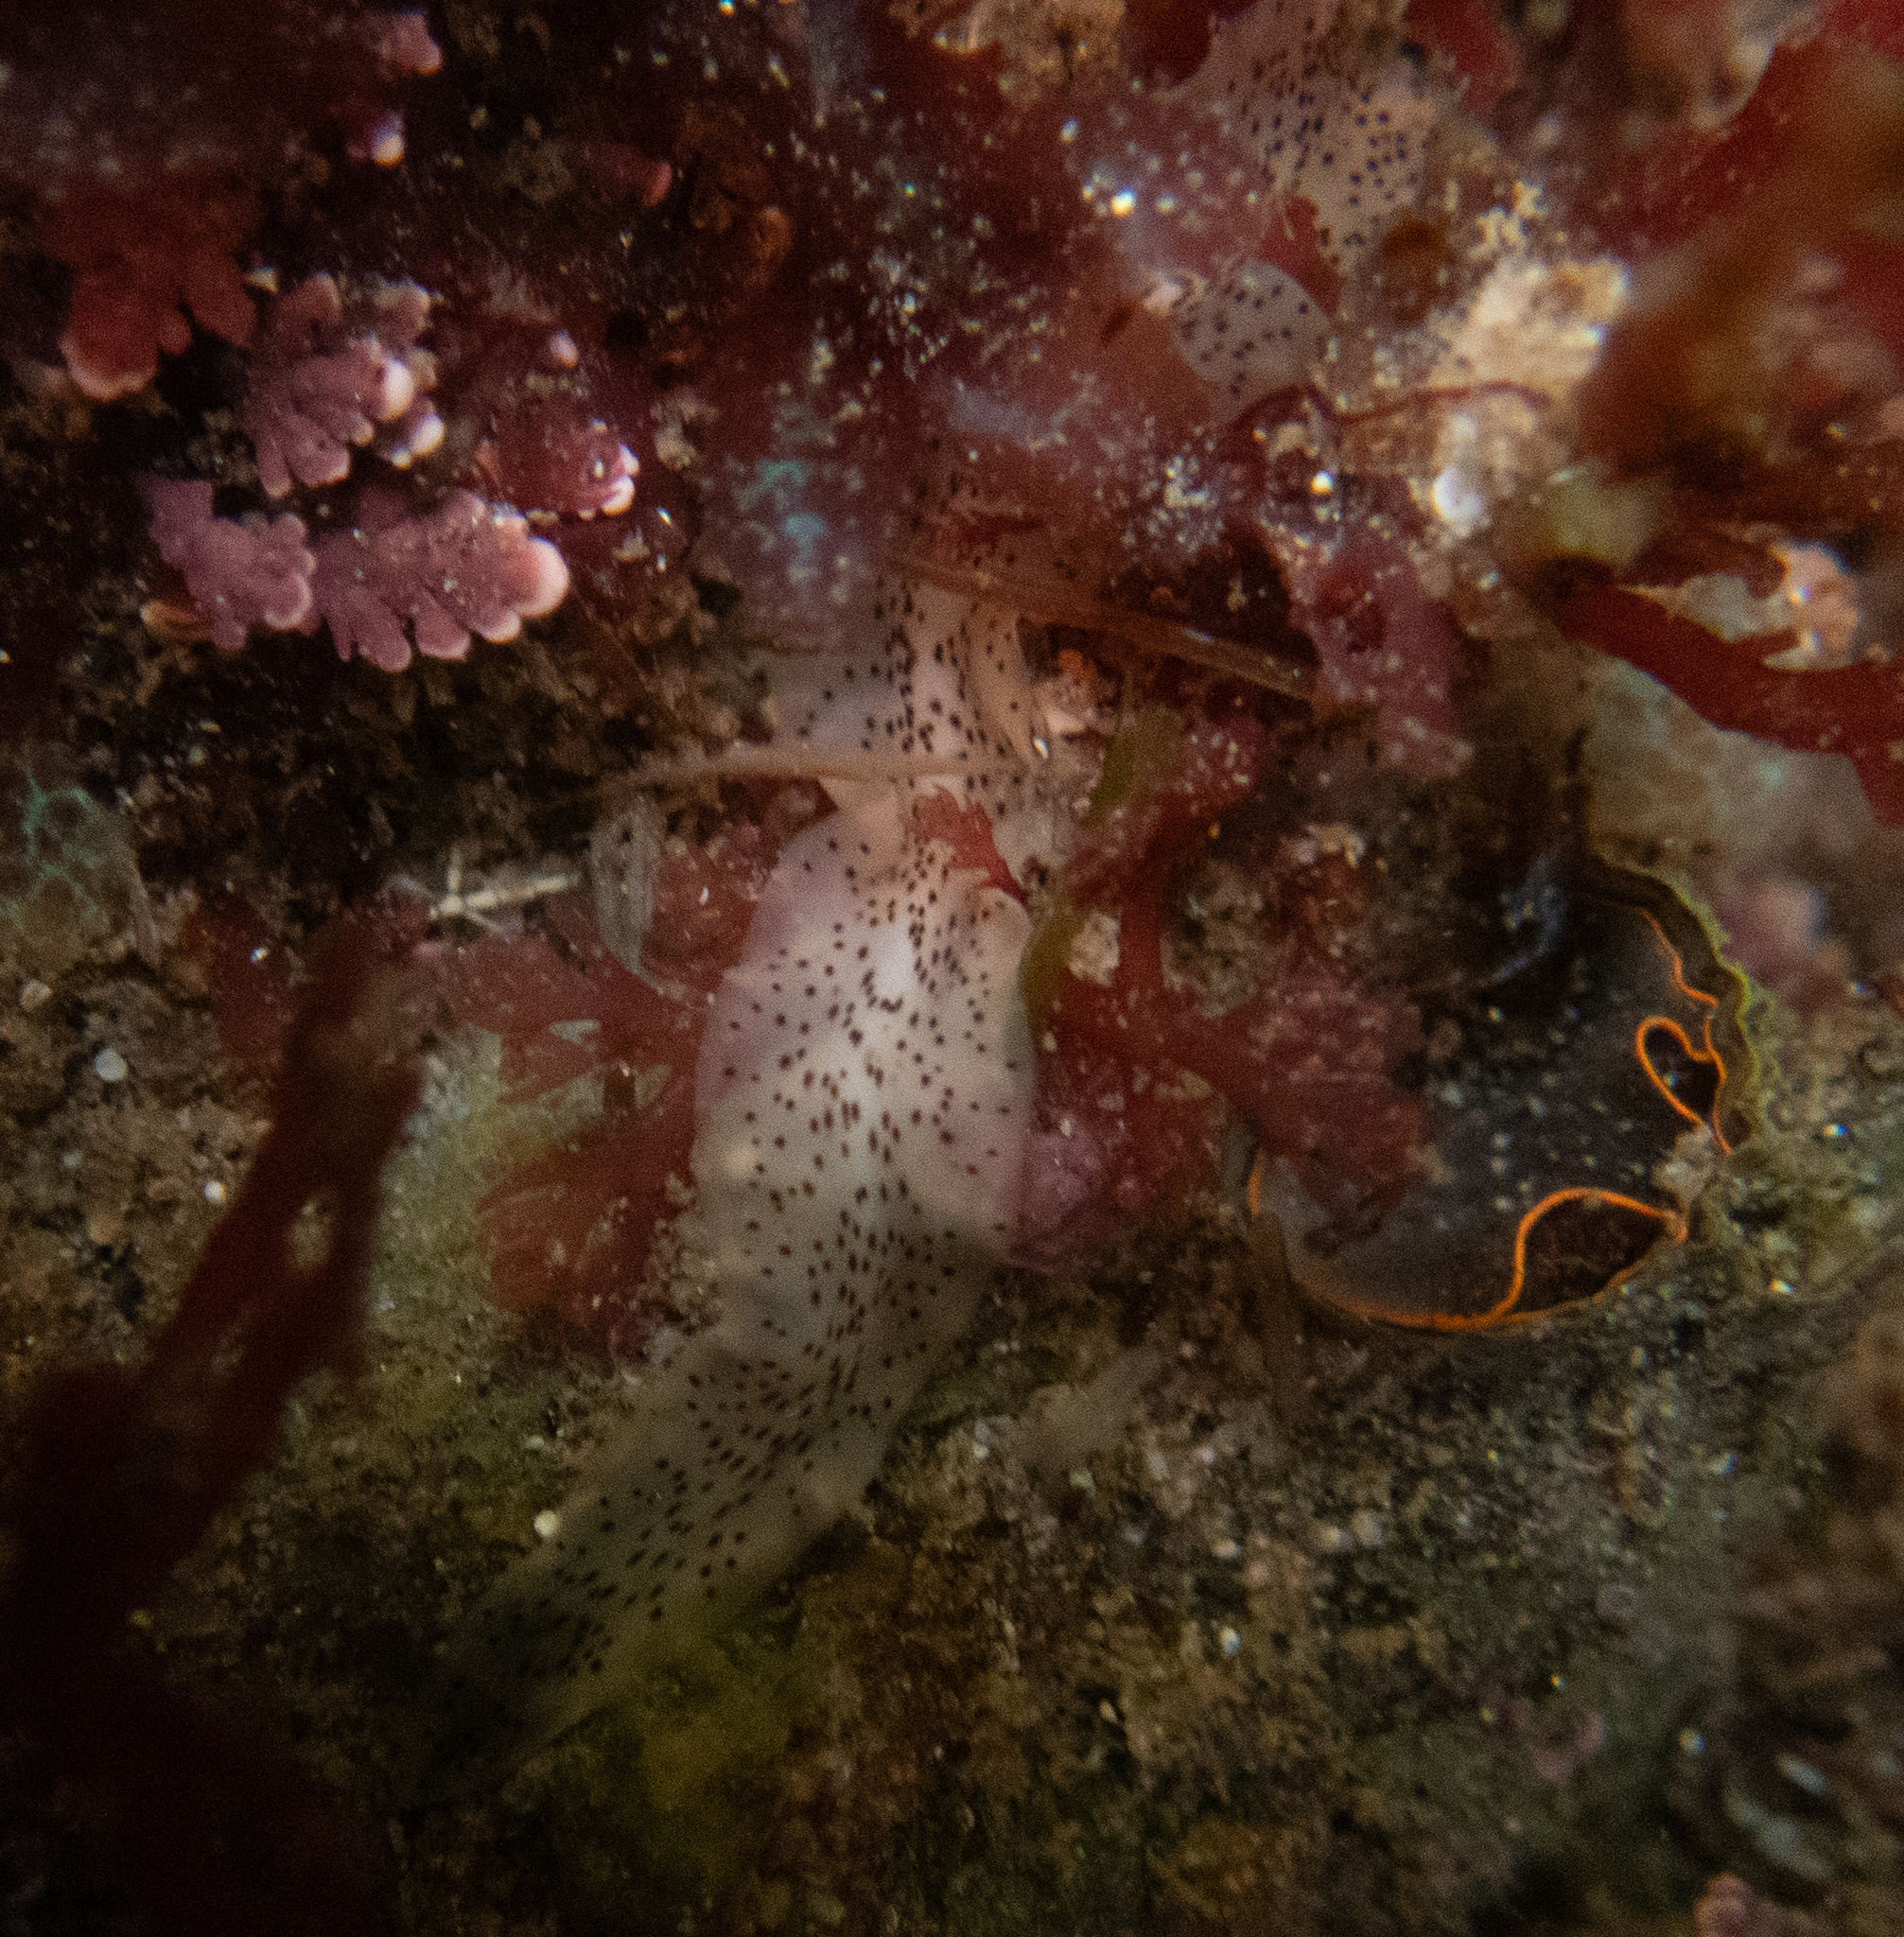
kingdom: Animalia
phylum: Platyhelminthes
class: Turbellaria
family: Prosthiostomidae
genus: Enchiridium
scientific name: Enchiridium punctatum
